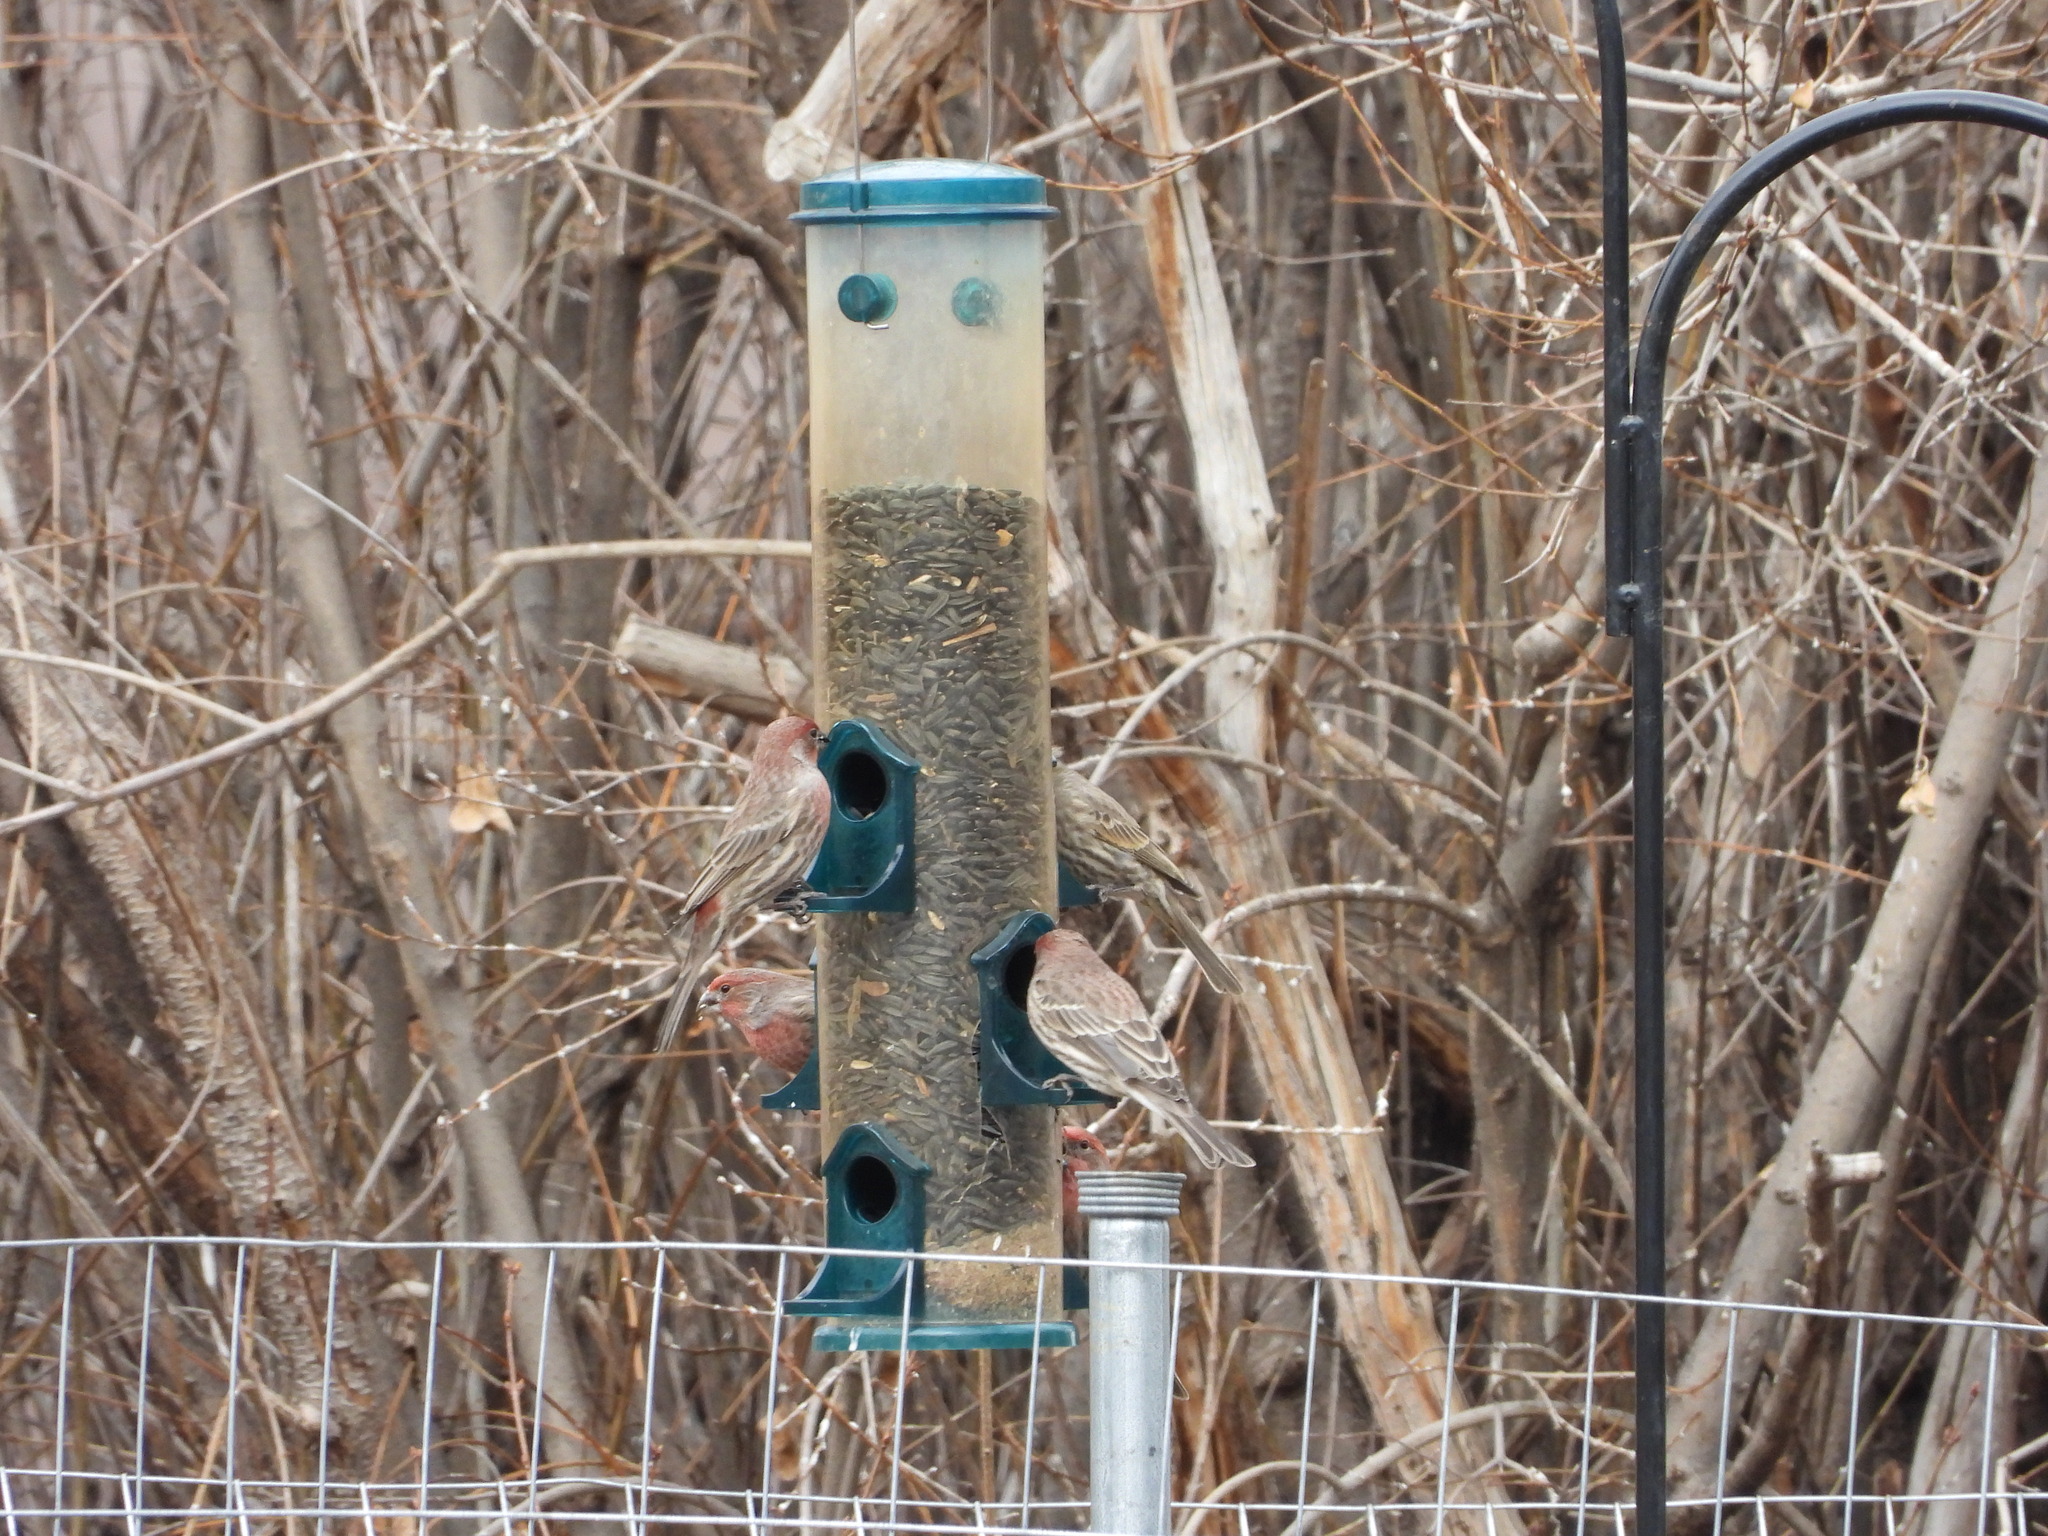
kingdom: Animalia
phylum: Chordata
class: Aves
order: Passeriformes
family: Fringillidae
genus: Haemorhous
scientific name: Haemorhous mexicanus
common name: House finch
